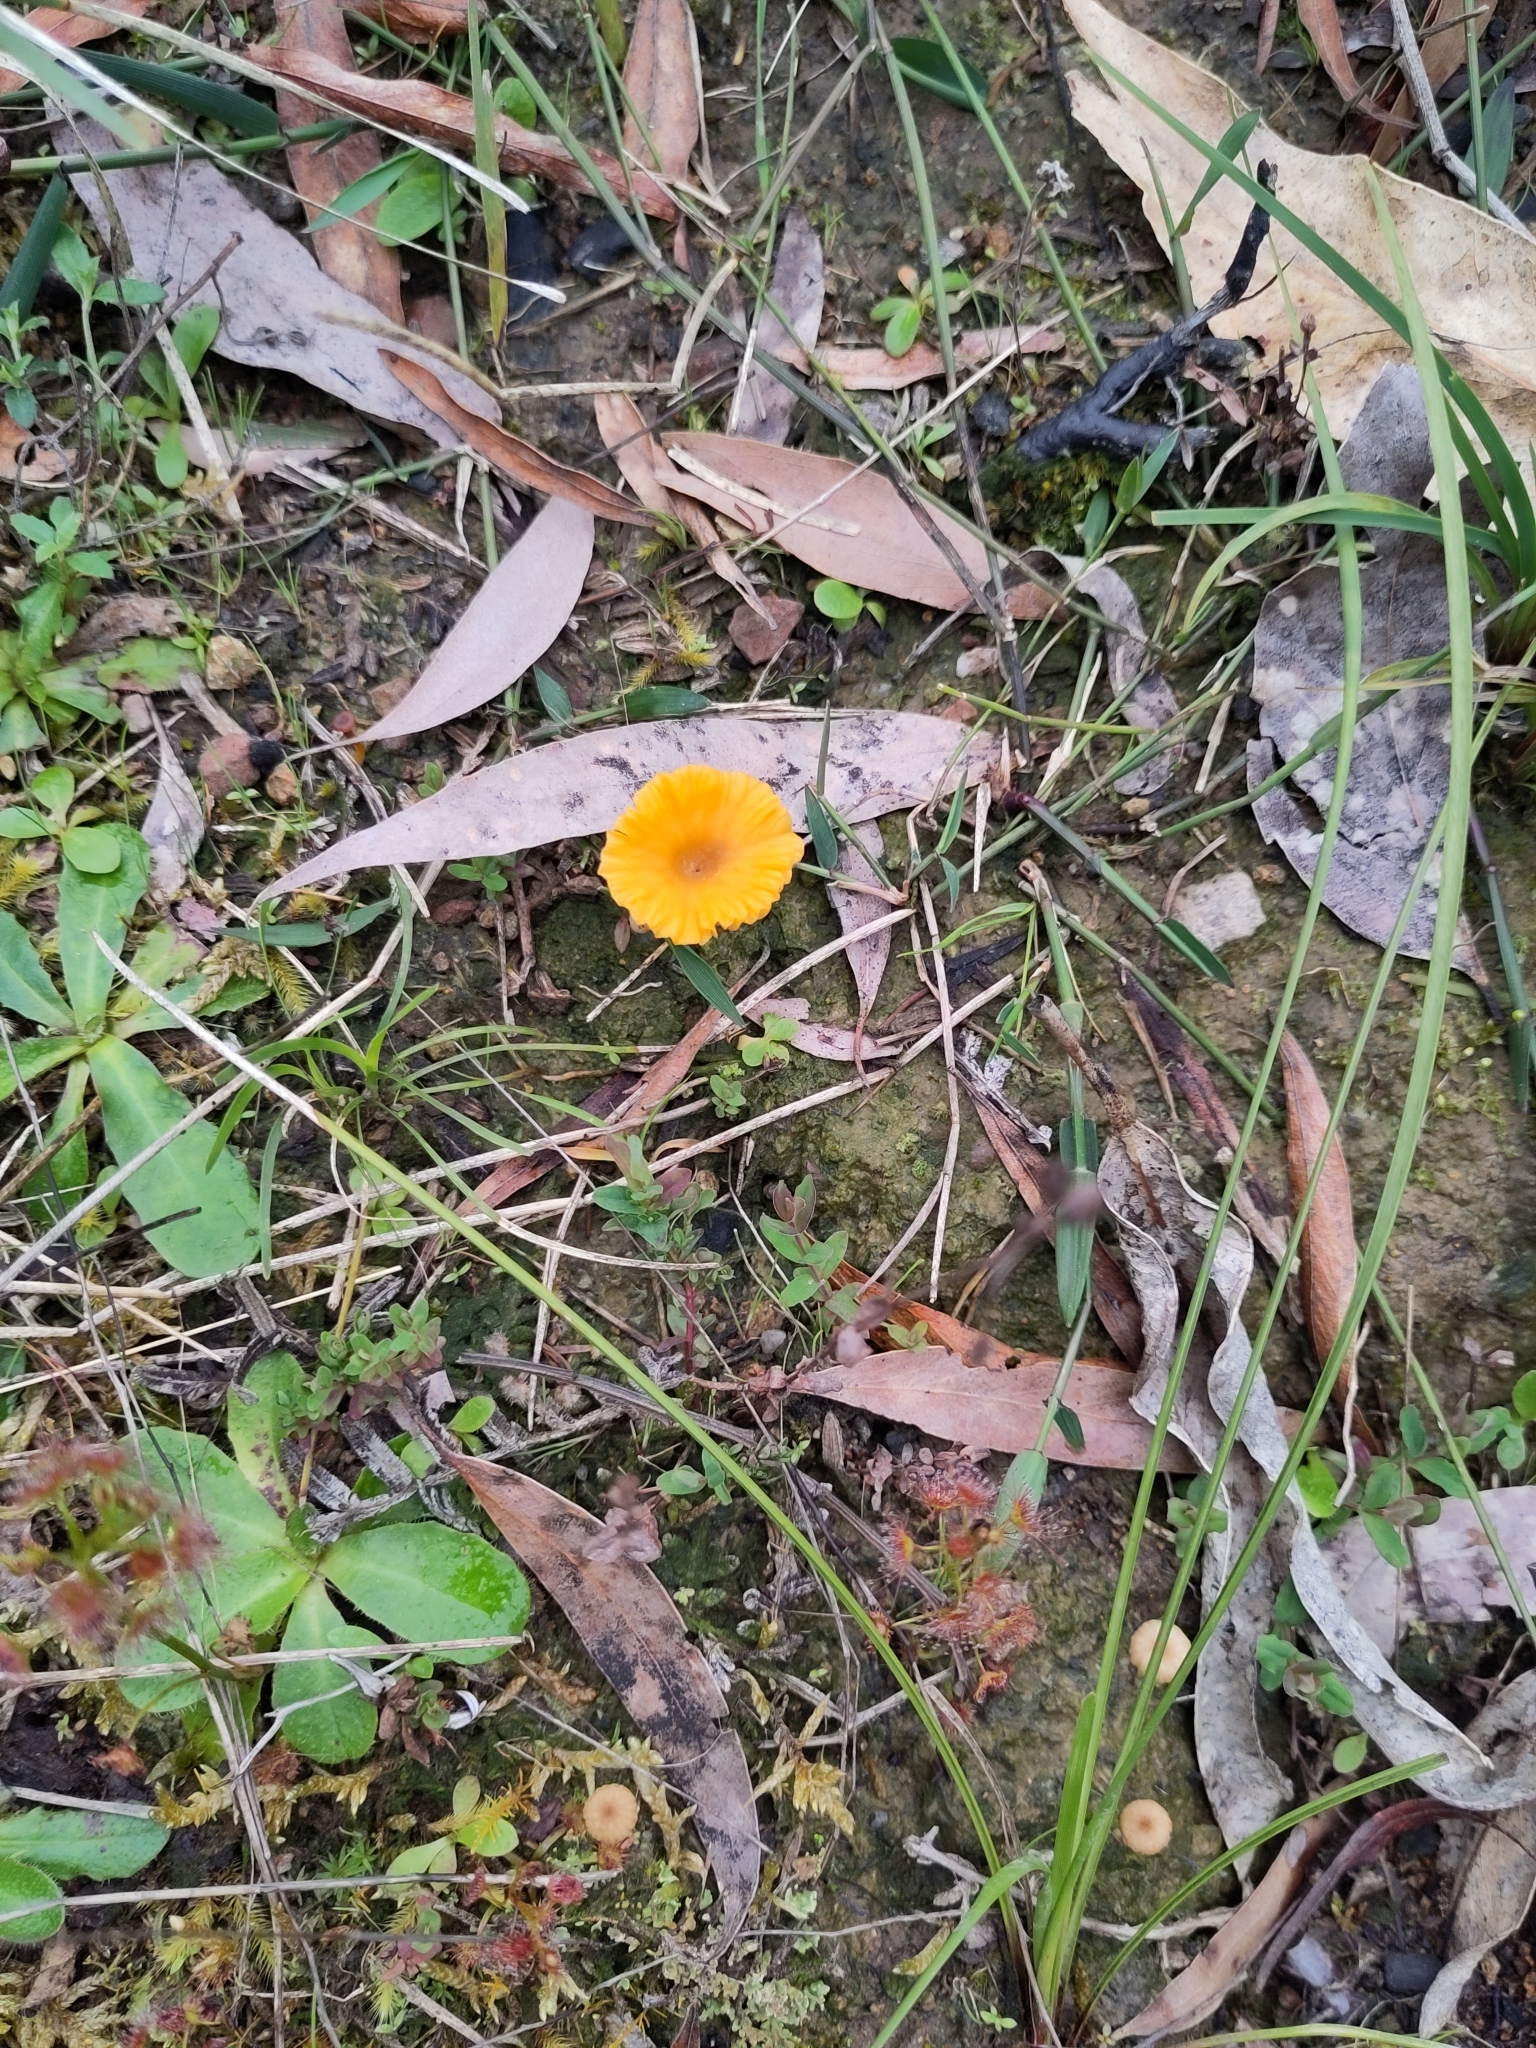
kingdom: Fungi
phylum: Basidiomycota
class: Agaricomycetes
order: Agaricales
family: Hygrophoraceae
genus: Lichenomphalia
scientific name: Lichenomphalia chromacea
